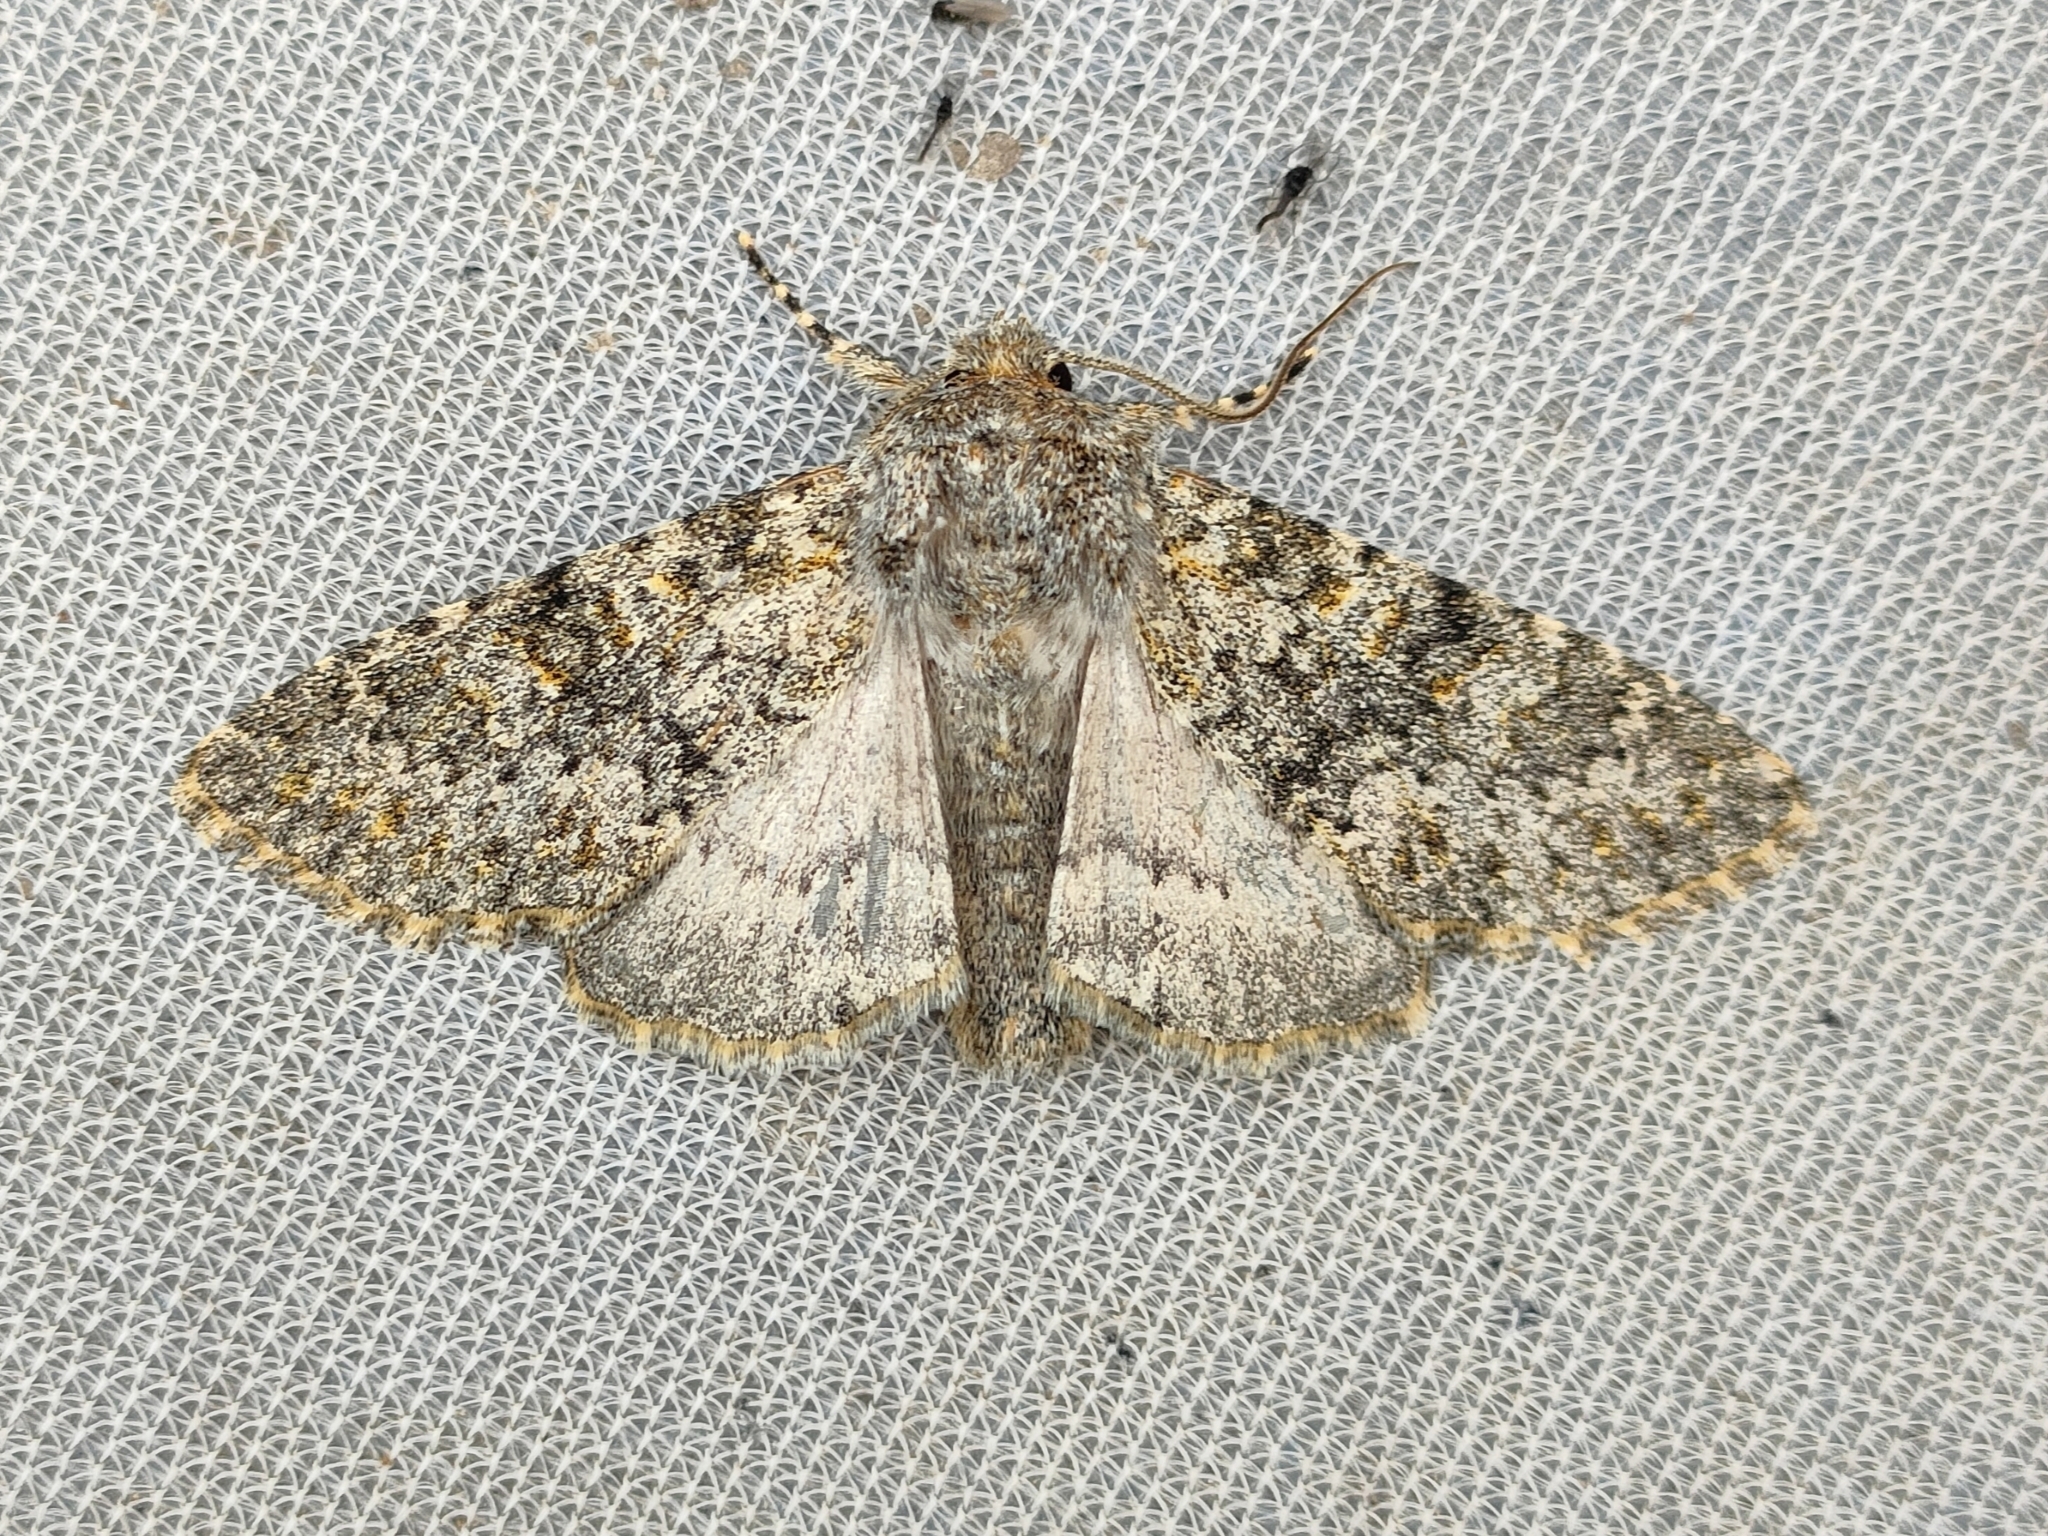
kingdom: Animalia
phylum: Arthropoda
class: Insecta
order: Lepidoptera
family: Noctuidae
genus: Polymixis
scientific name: Polymixis flavicincta
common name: Large ranunculus
